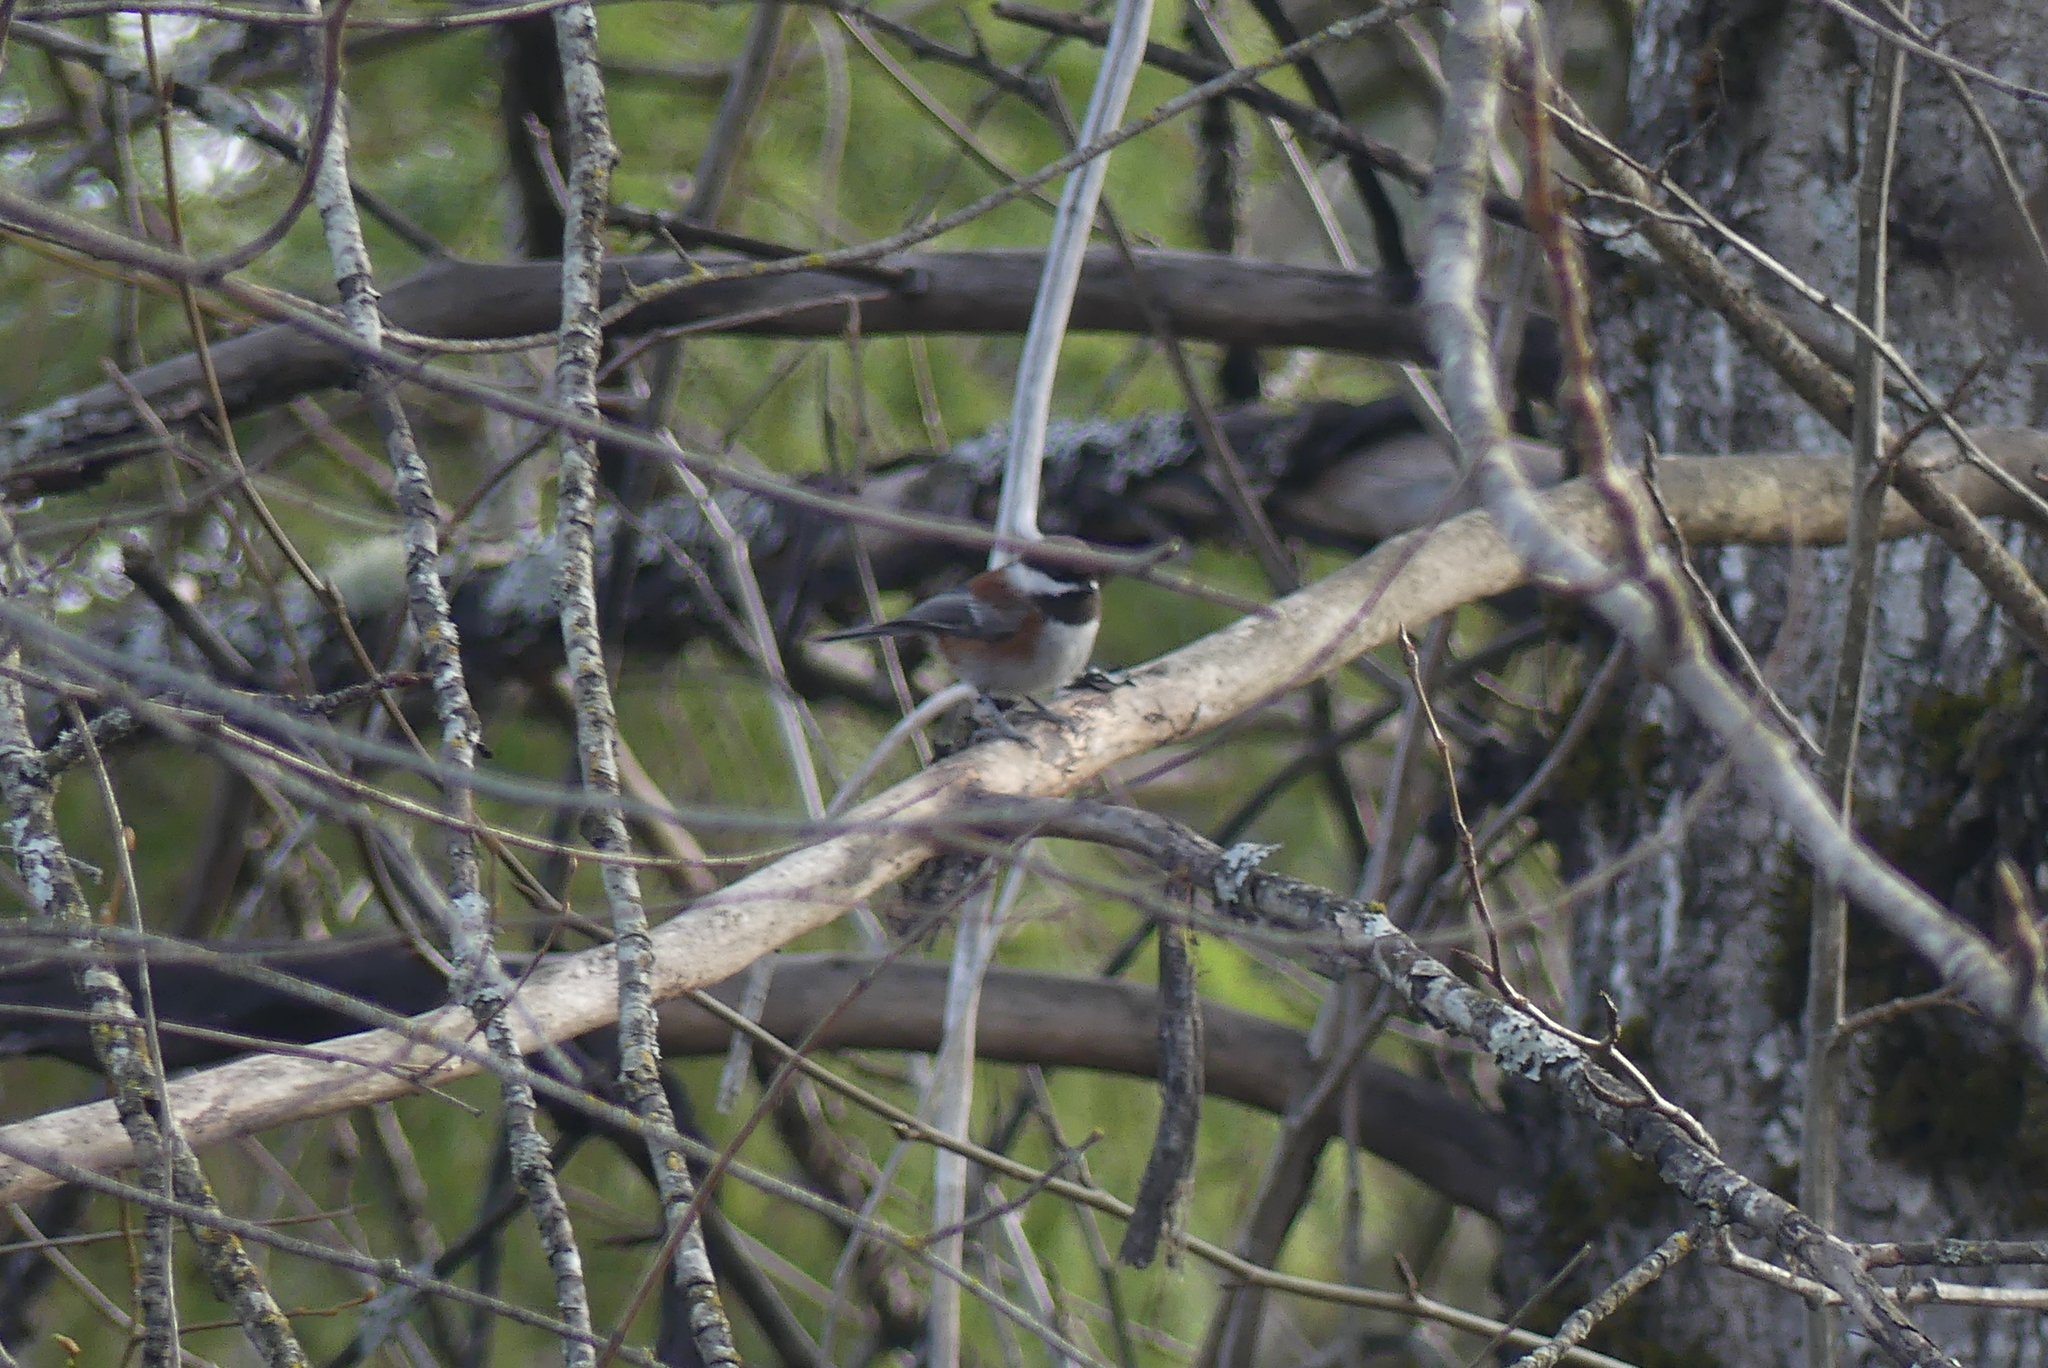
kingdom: Animalia
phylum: Chordata
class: Aves
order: Passeriformes
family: Paridae
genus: Poecile
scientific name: Poecile rufescens
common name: Chestnut-backed chickadee
